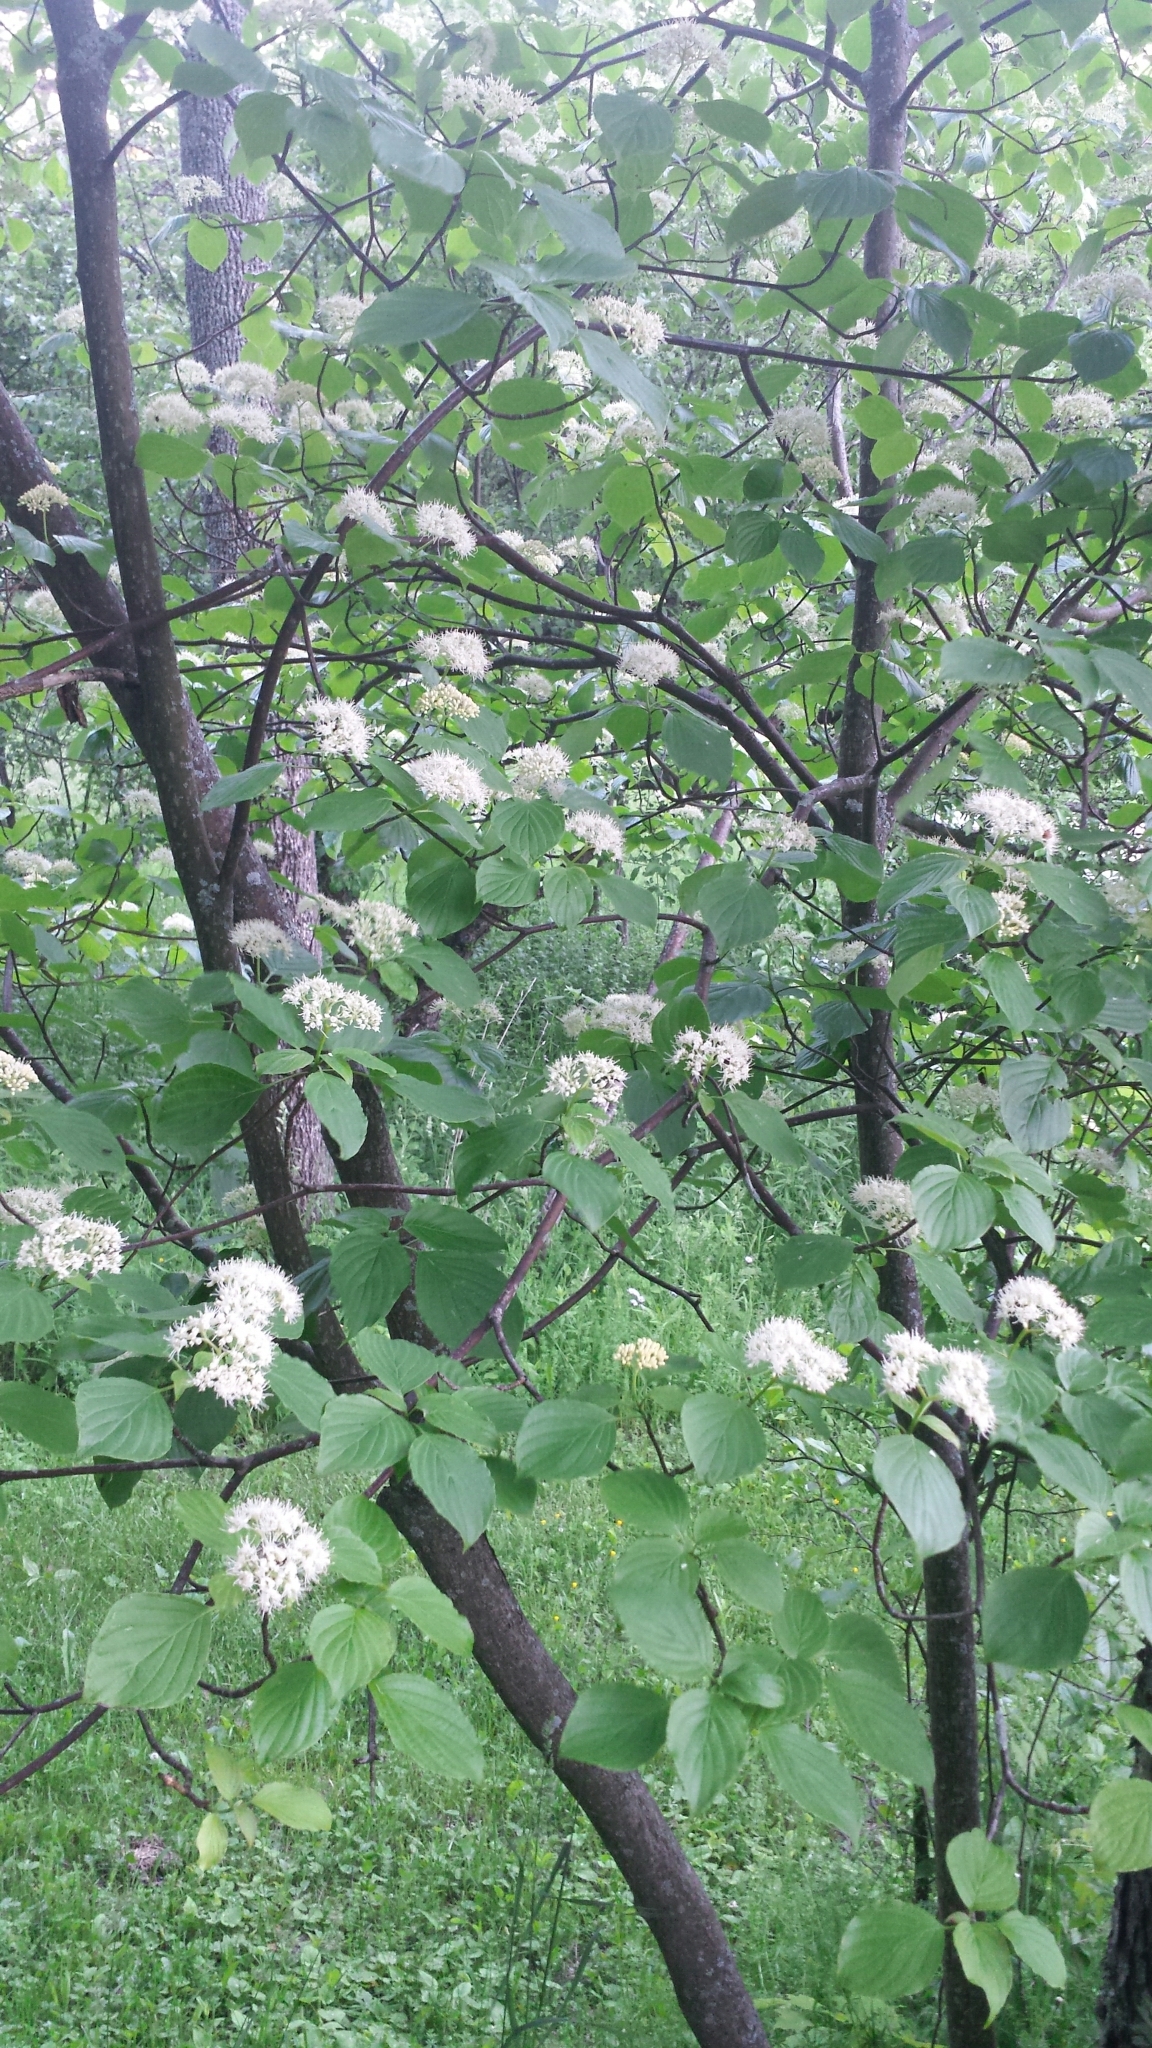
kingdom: Plantae
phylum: Tracheophyta
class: Magnoliopsida
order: Cornales
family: Cornaceae
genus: Cornus
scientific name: Cornus alternifolia
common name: Pagoda dogwood
